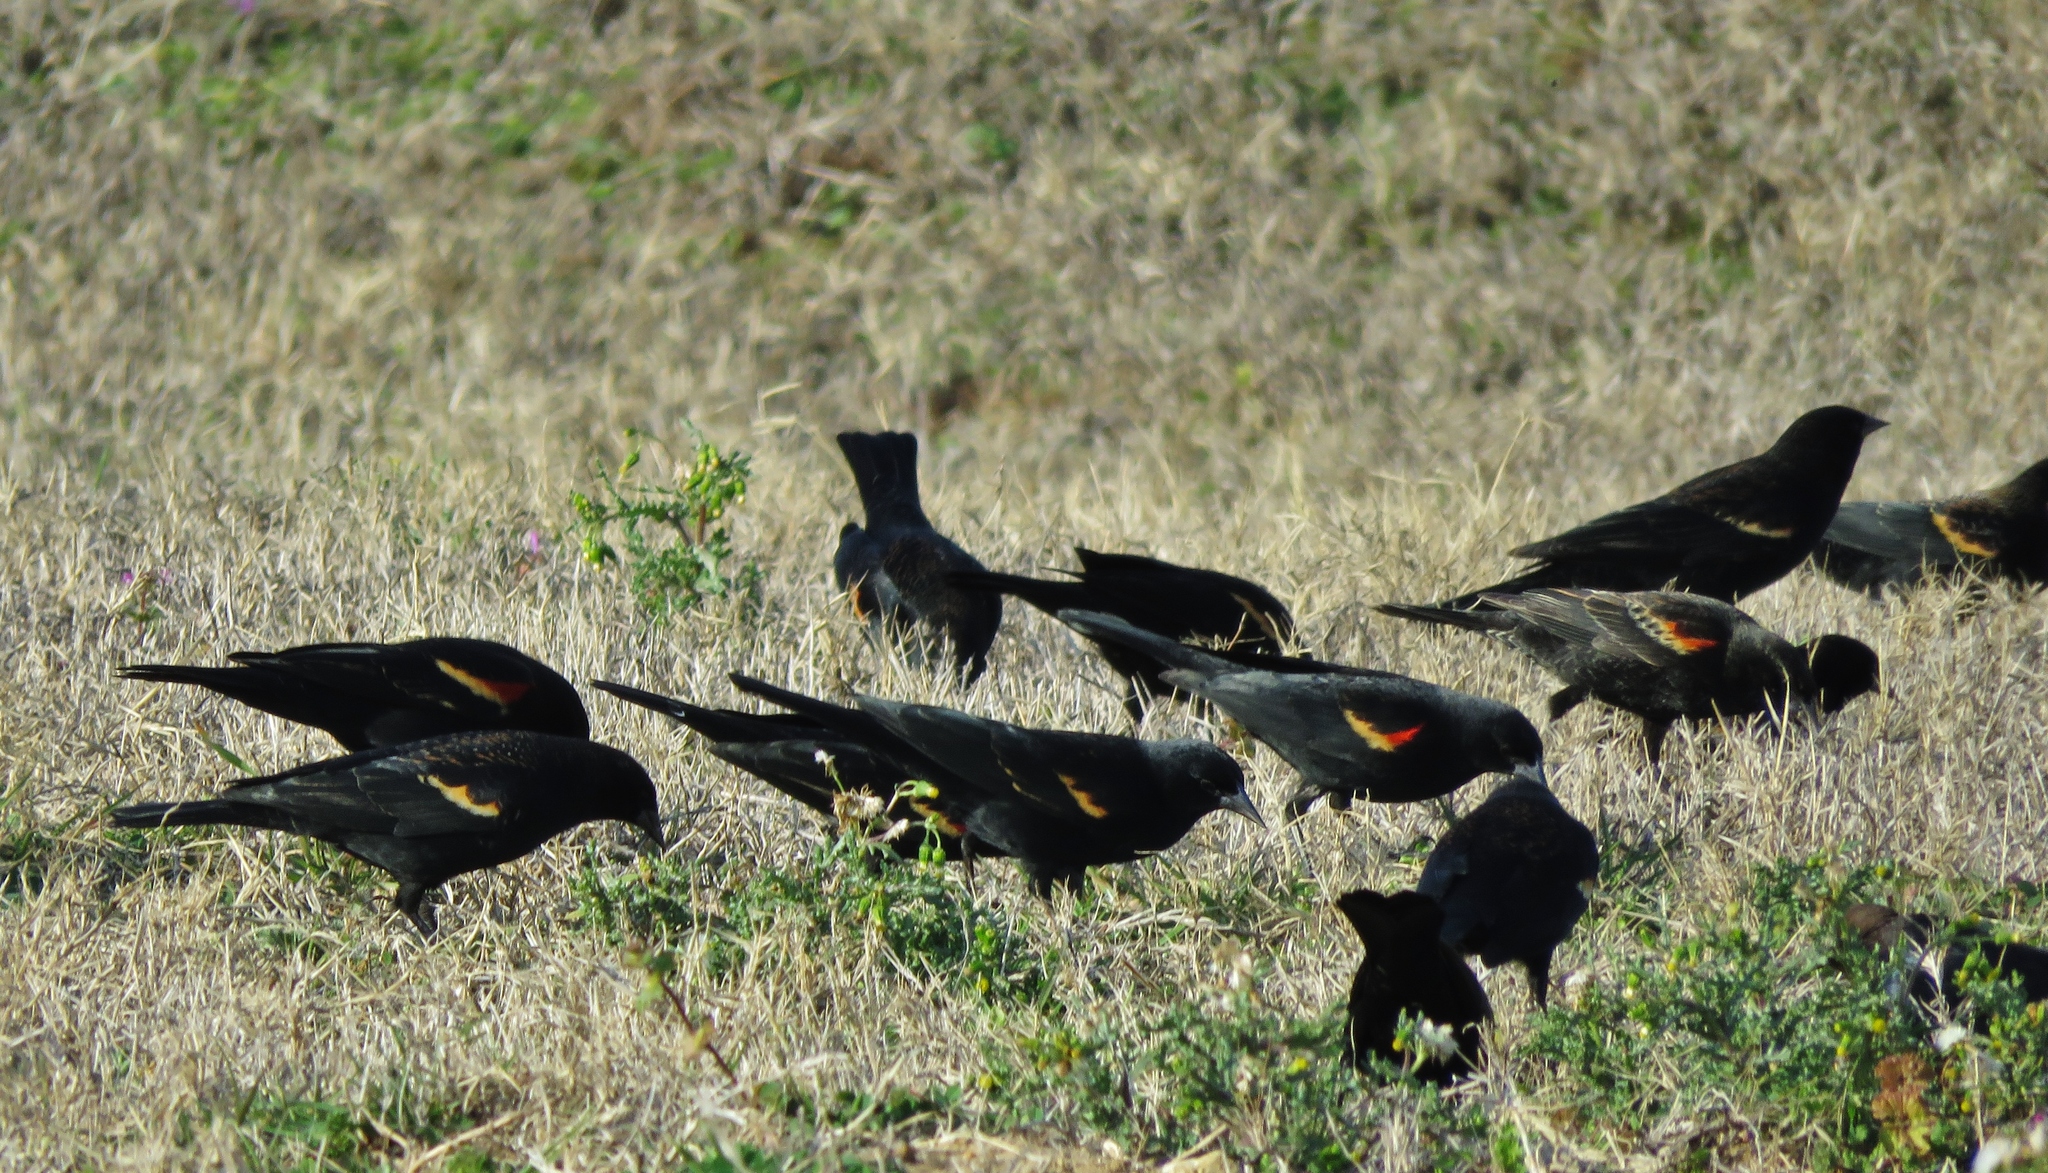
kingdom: Animalia
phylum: Chordata
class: Aves
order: Passeriformes
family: Icteridae
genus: Agelaius
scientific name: Agelaius phoeniceus
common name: Red-winged blackbird
